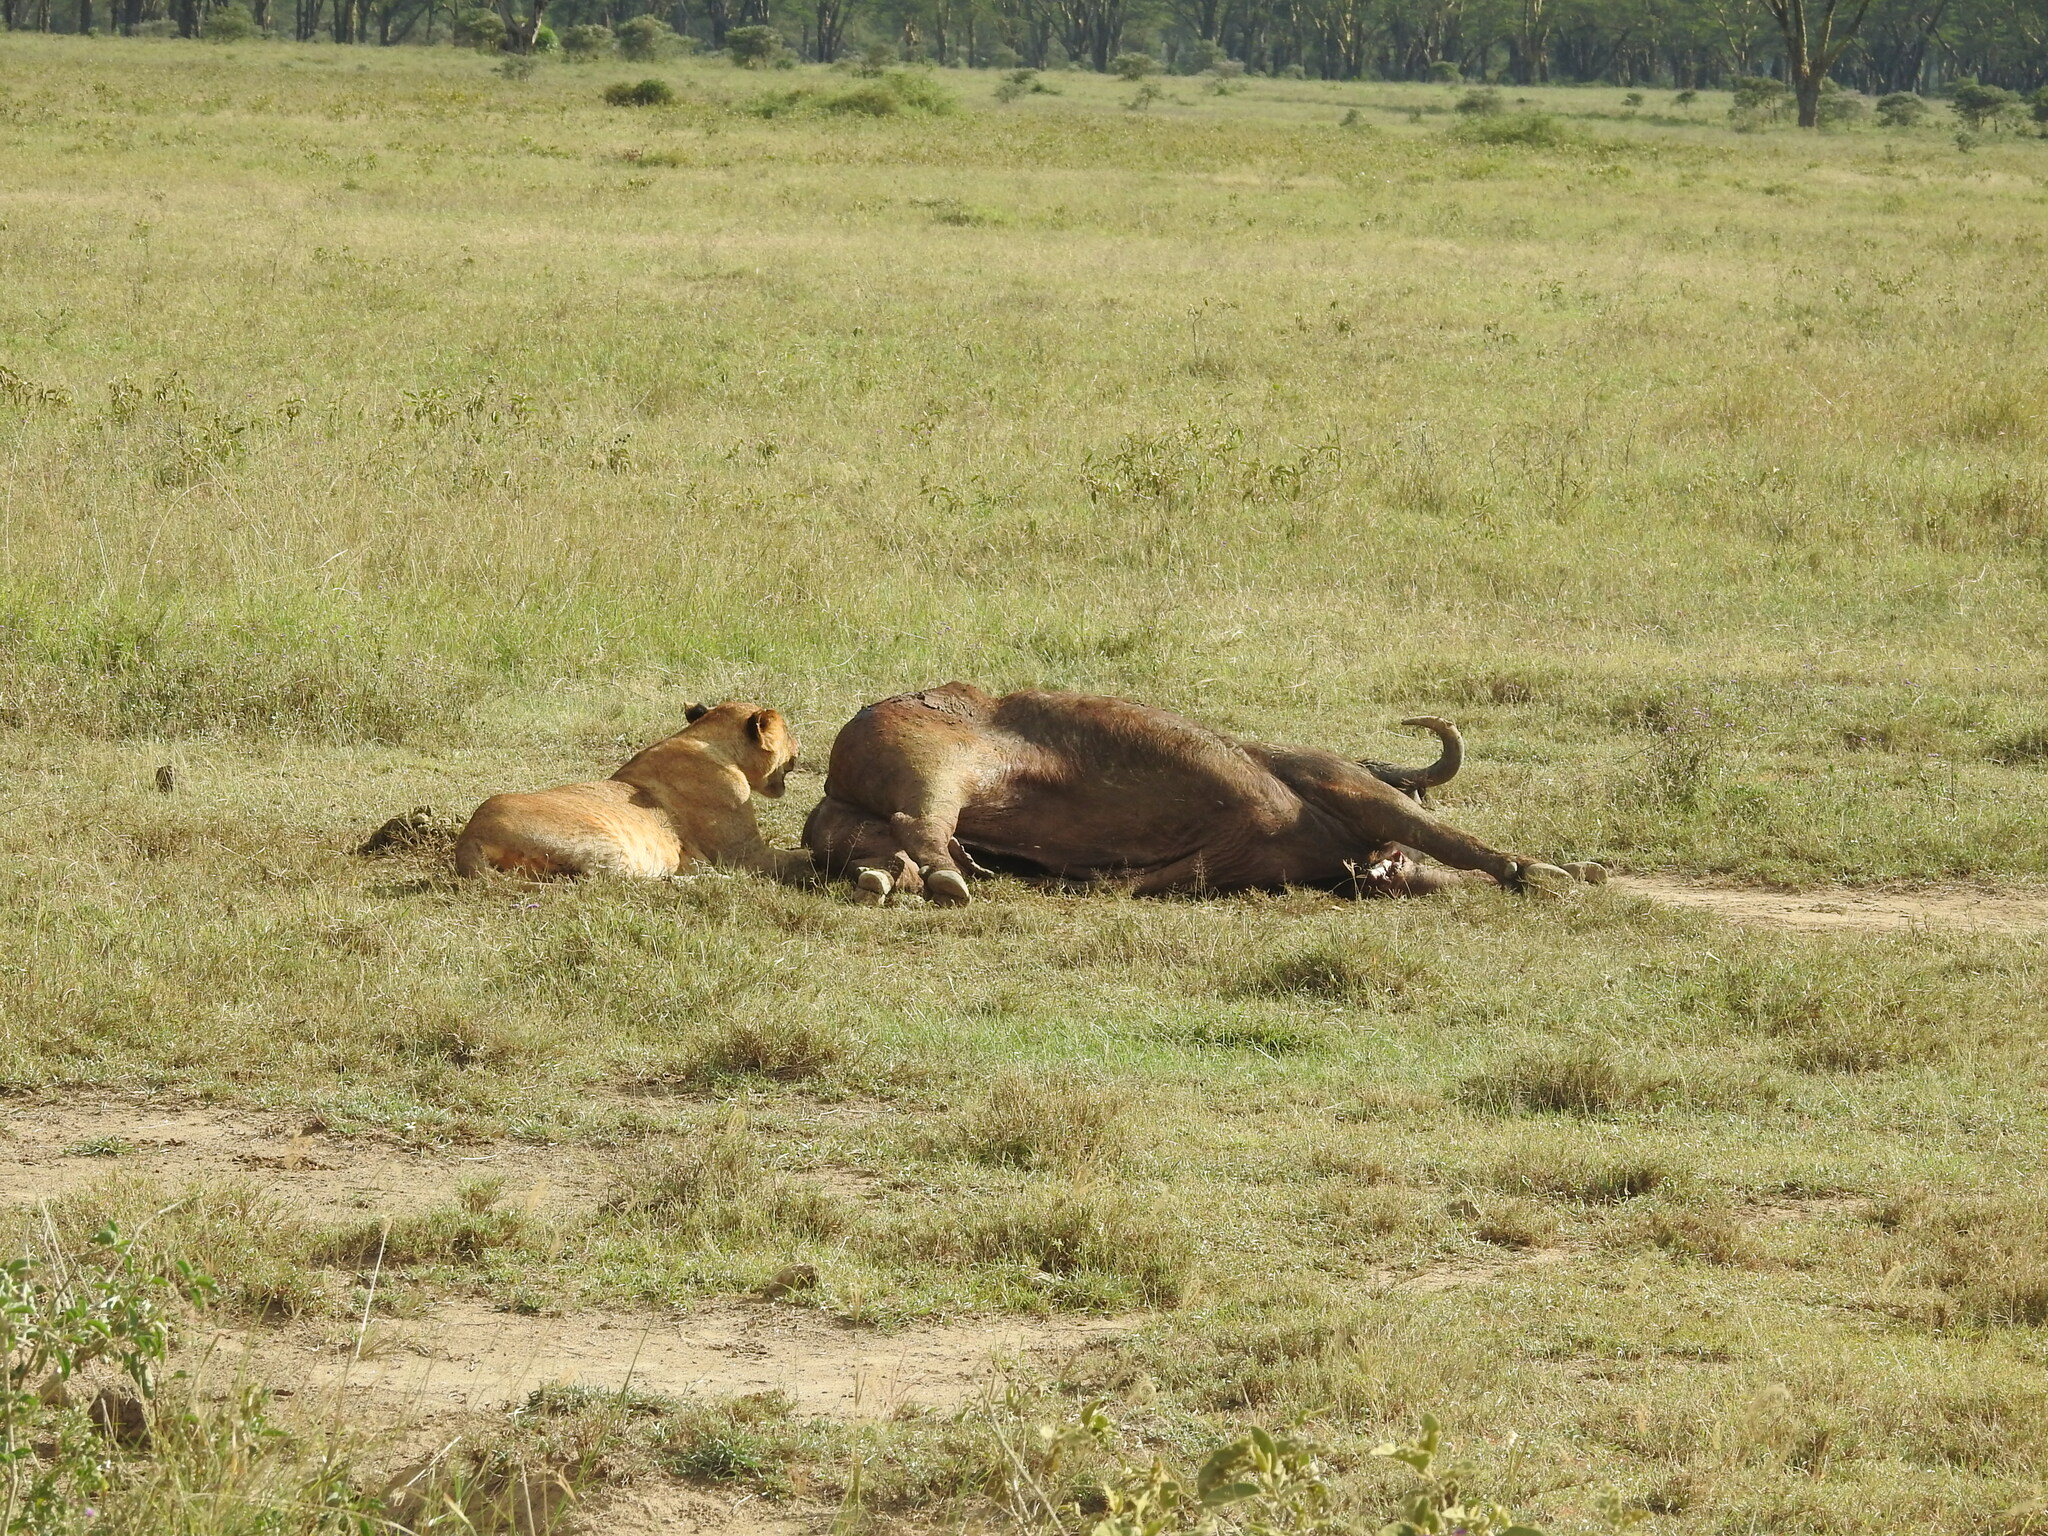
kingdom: Animalia
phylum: Chordata
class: Mammalia
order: Carnivora
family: Felidae
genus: Panthera
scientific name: Panthera leo
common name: Lion
